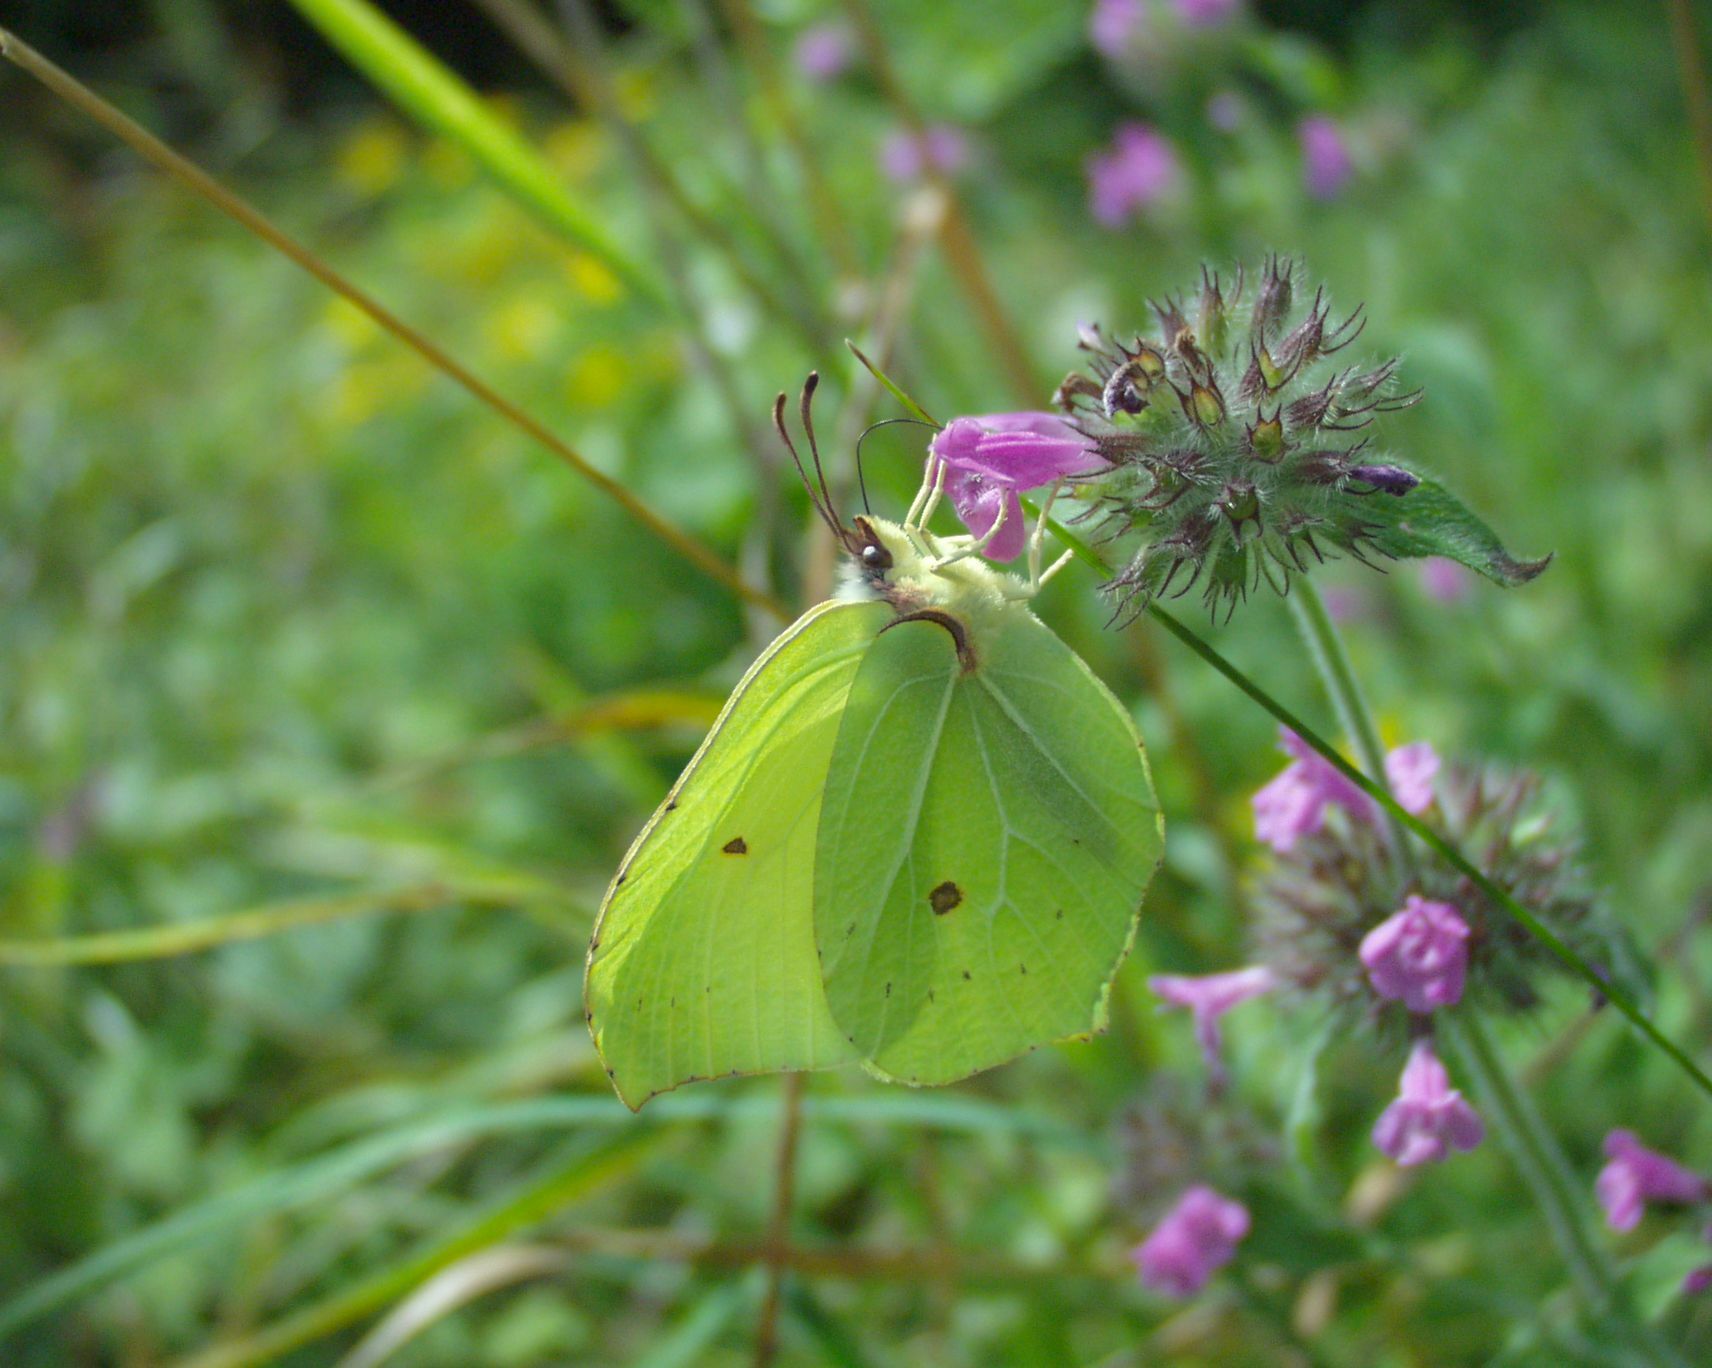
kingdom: Animalia
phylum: Arthropoda
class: Insecta
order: Lepidoptera
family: Pieridae
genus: Gonepteryx
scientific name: Gonepteryx rhamni
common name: Brimstone
